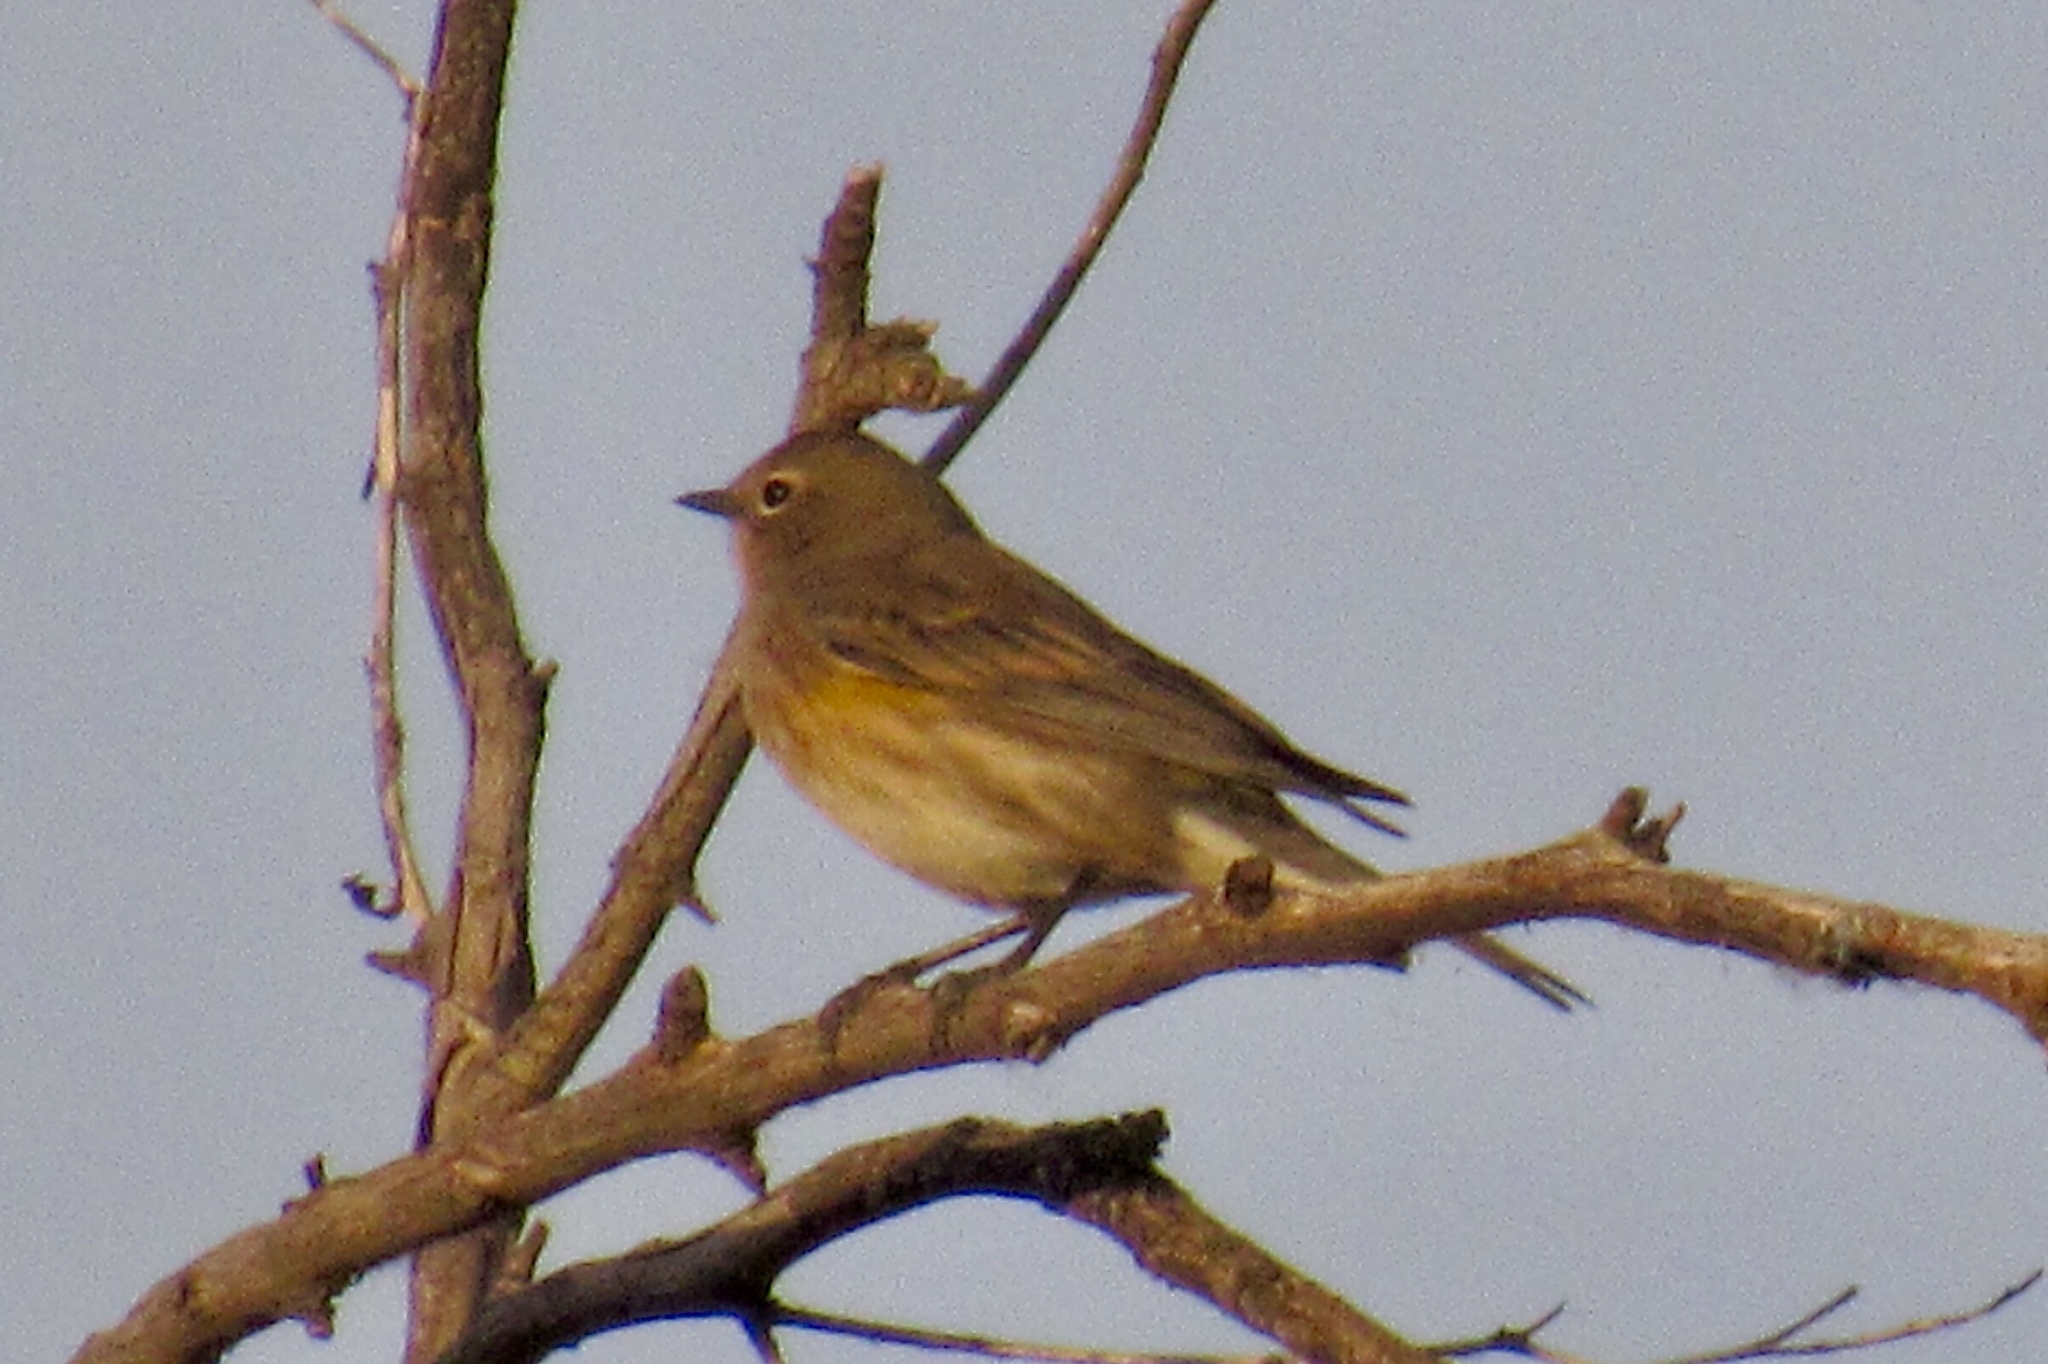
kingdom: Animalia
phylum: Chordata
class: Aves
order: Passeriformes
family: Parulidae
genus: Setophaga
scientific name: Setophaga coronata
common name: Myrtle warbler
